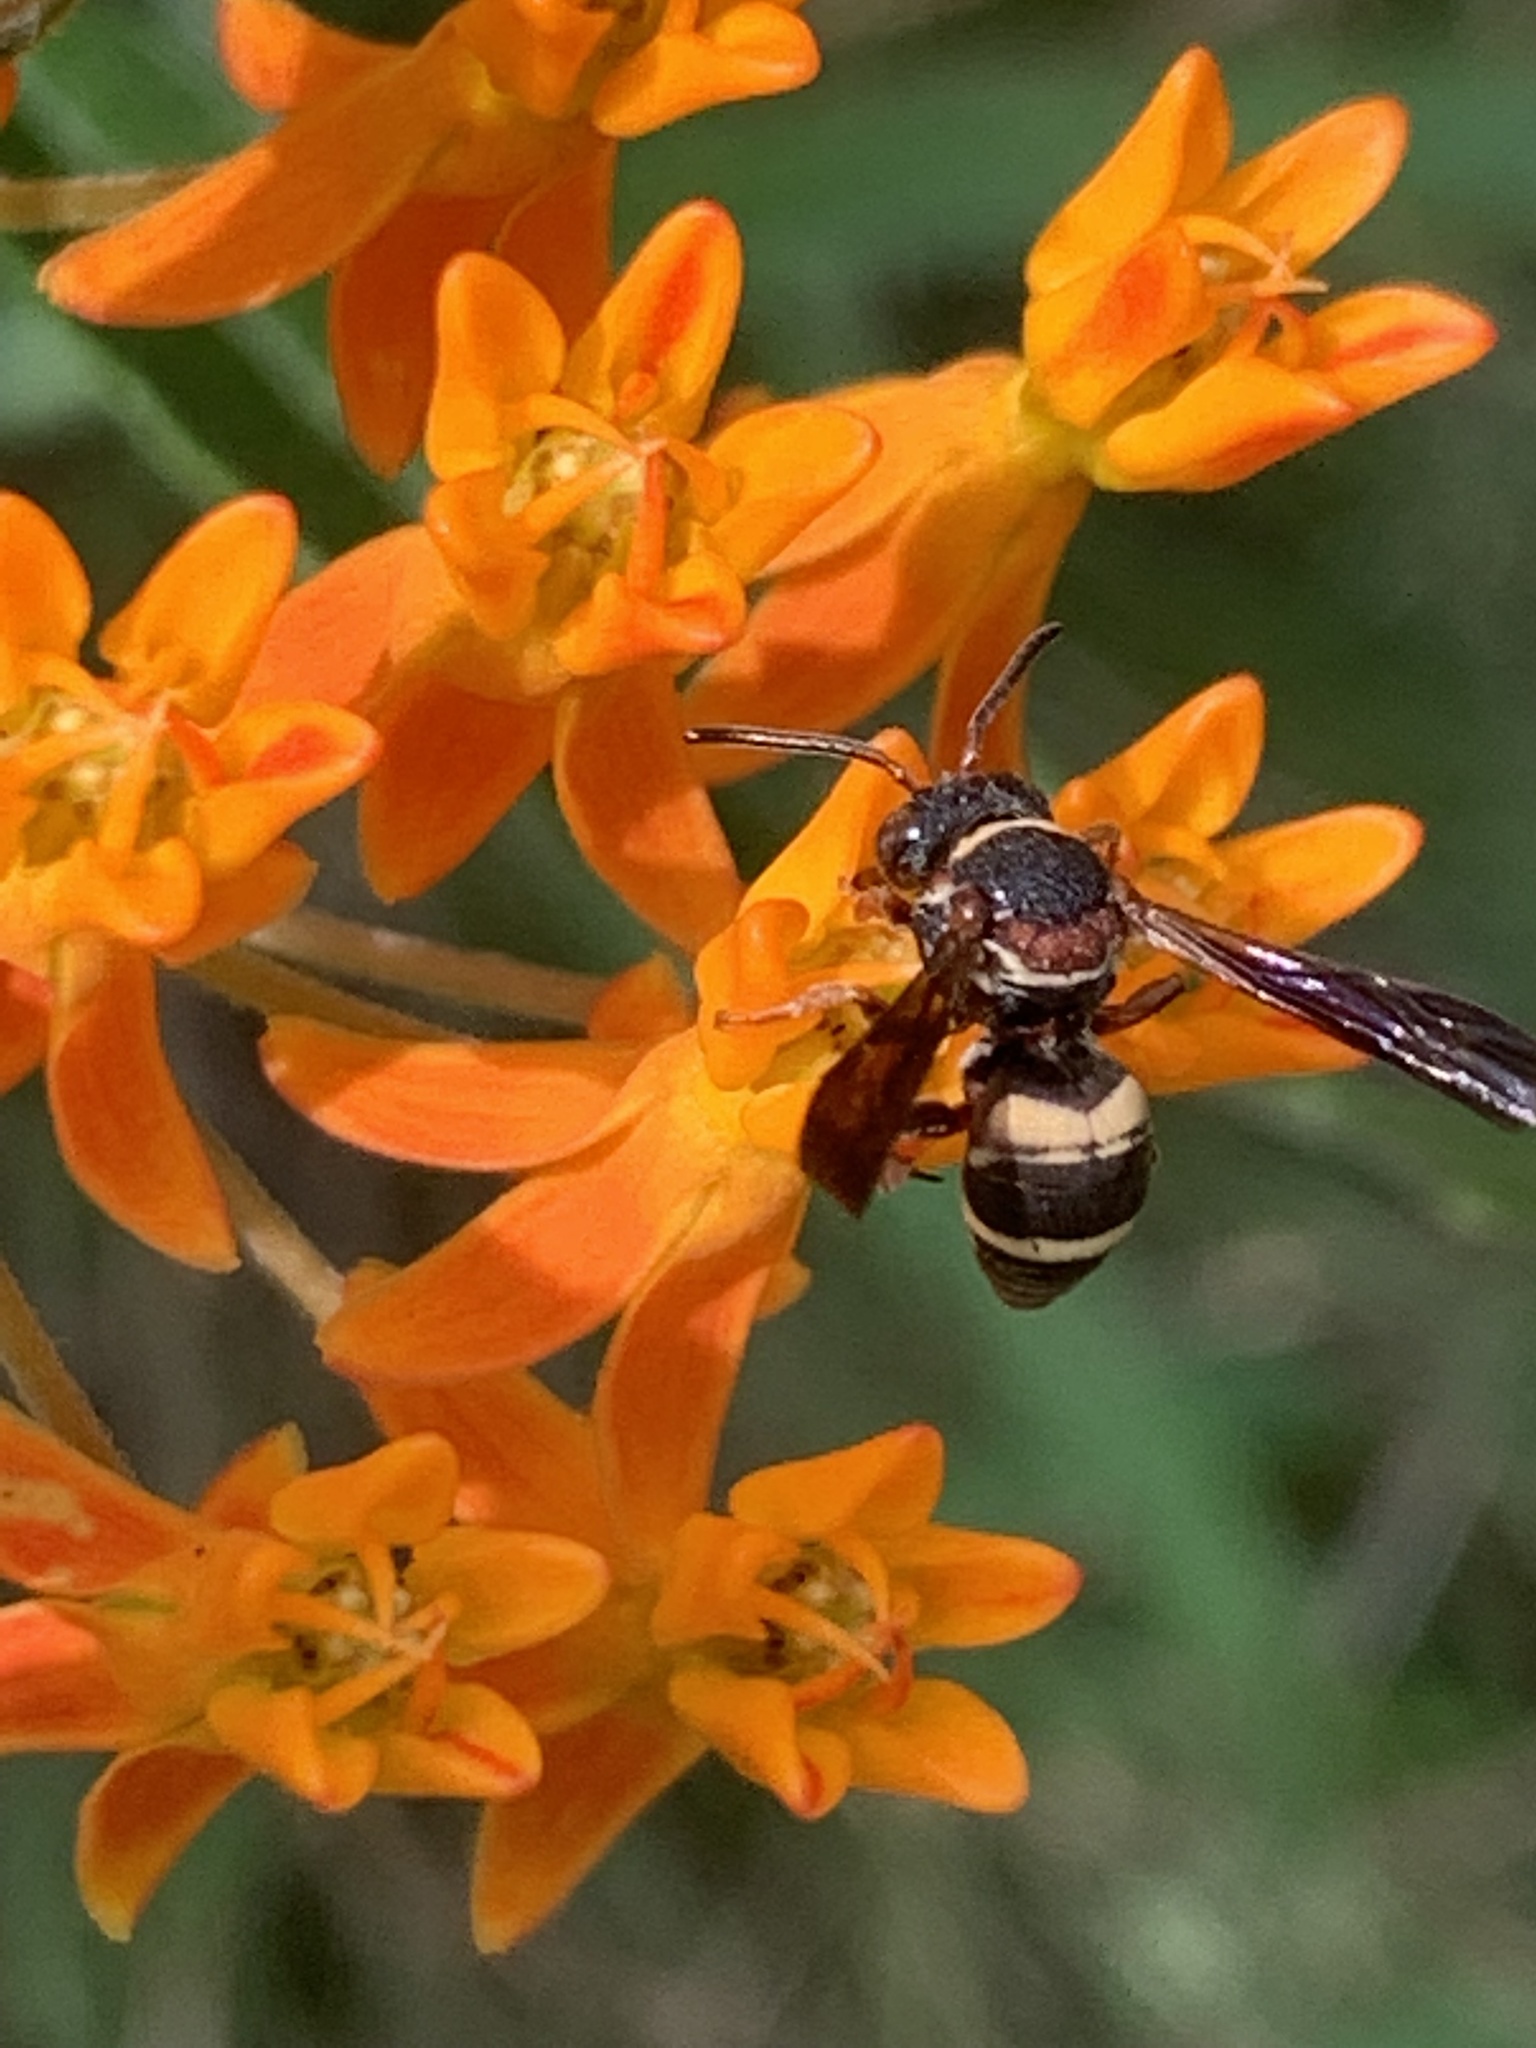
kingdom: Animalia
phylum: Arthropoda
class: Insecta
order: Hymenoptera
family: Apidae
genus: Epeolus
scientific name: Epeolus bifasciatus
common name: Two-banded cellophane-cuckoo
